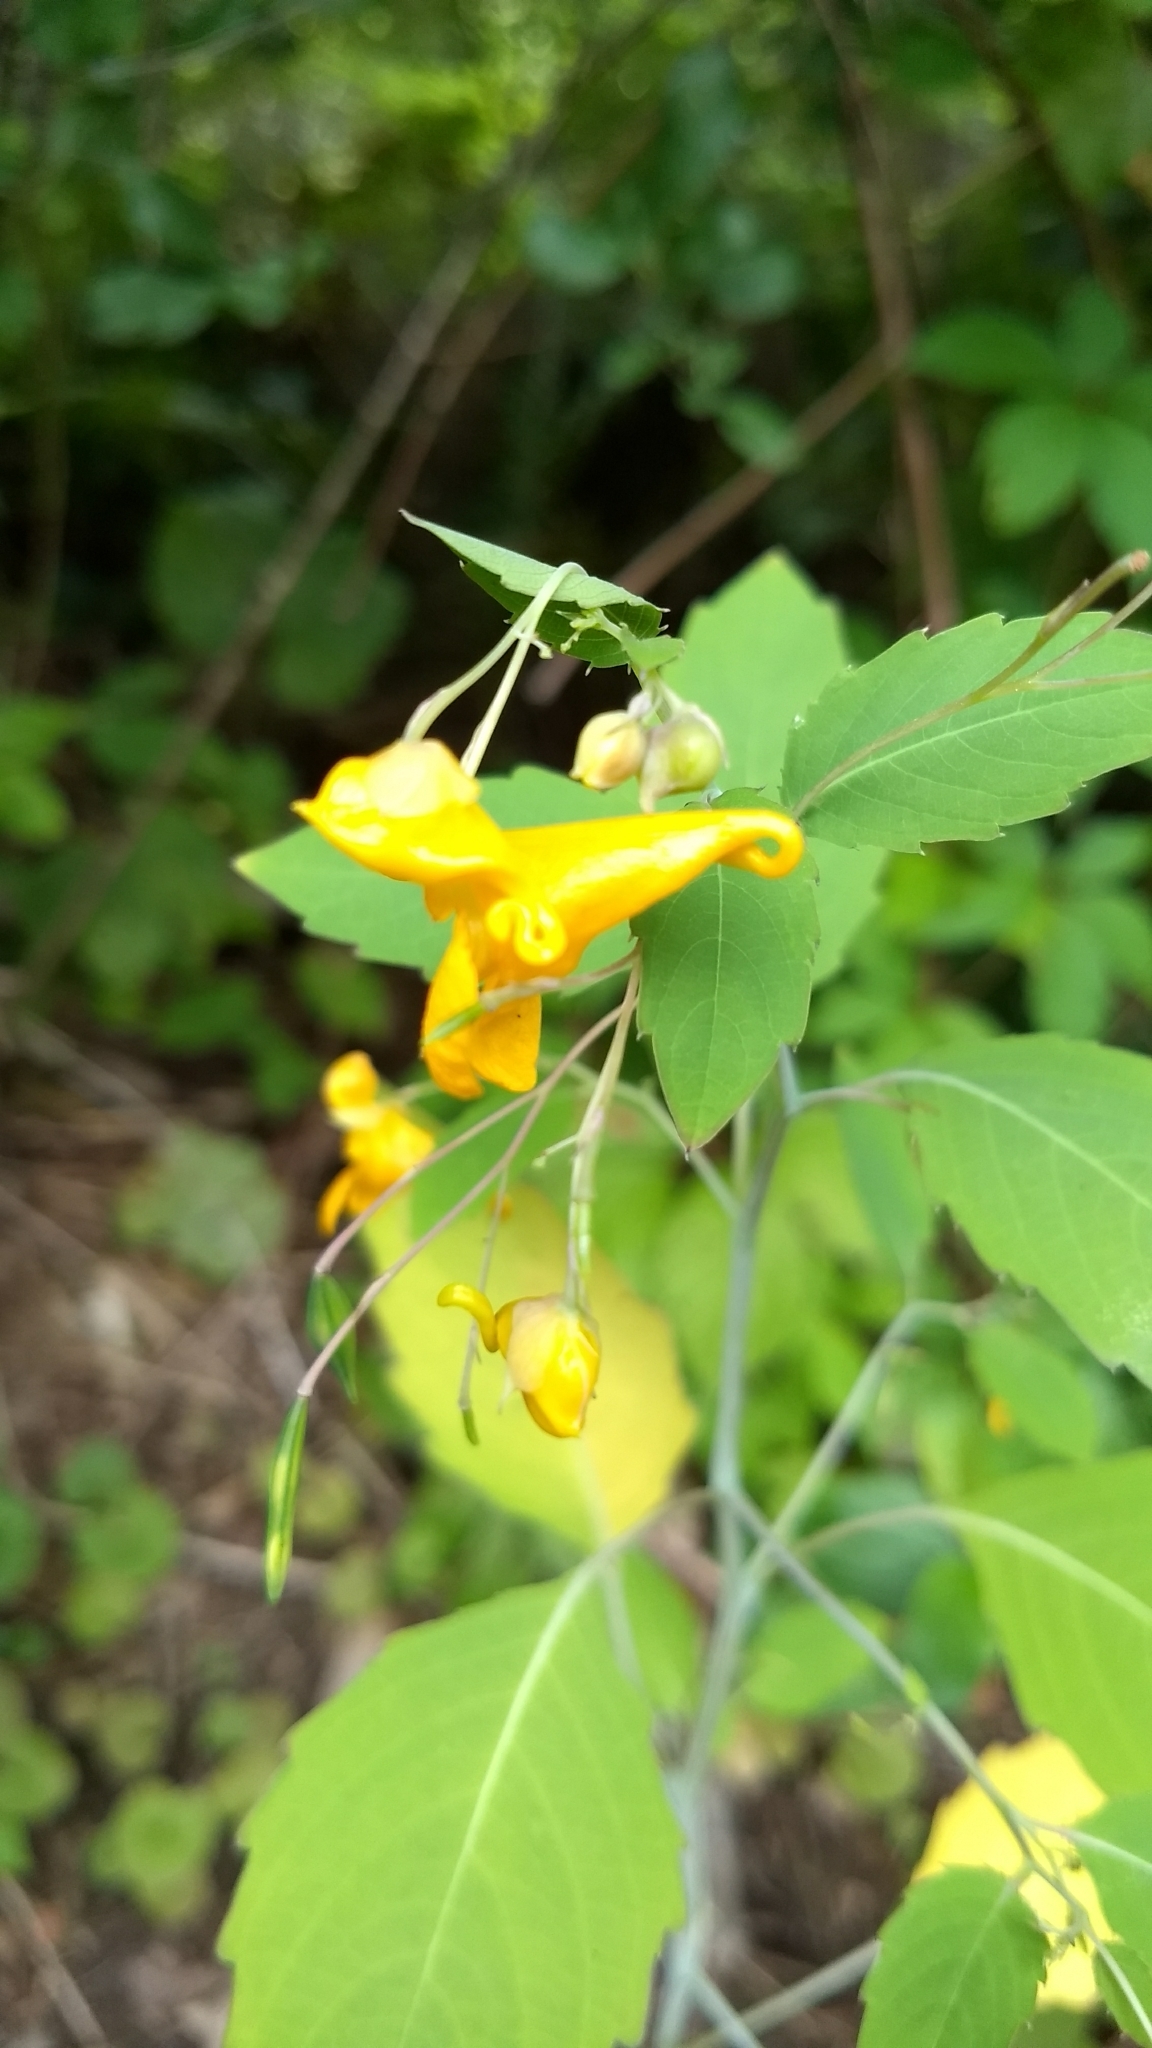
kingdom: Plantae
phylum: Tracheophyta
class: Magnoliopsida
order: Ericales
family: Balsaminaceae
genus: Impatiens
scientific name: Impatiens capensis
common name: Orange balsam
